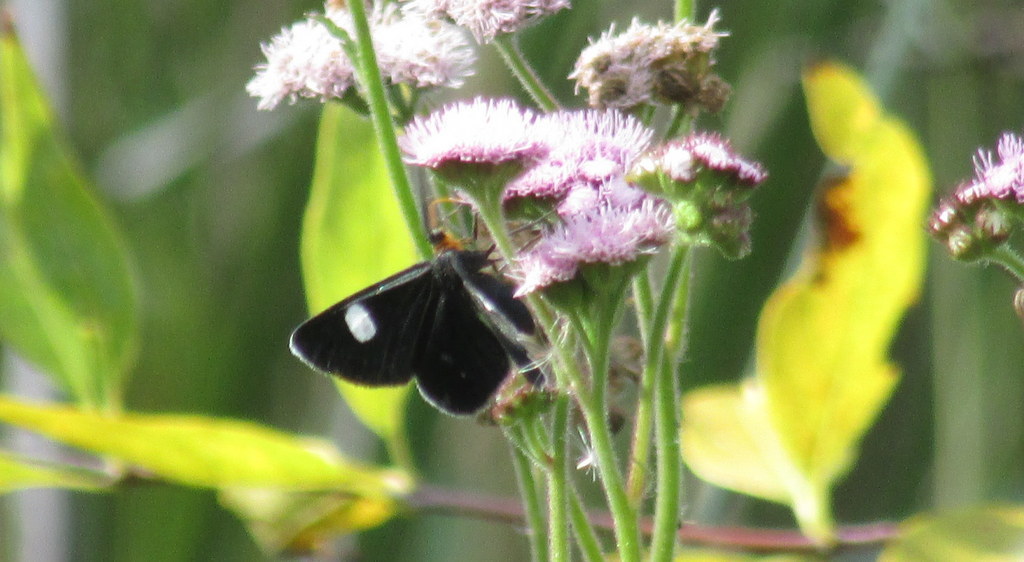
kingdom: Animalia
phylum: Arthropoda
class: Insecta
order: Lepidoptera
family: Geometridae
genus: Melanchroia
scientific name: Melanchroia aterea
